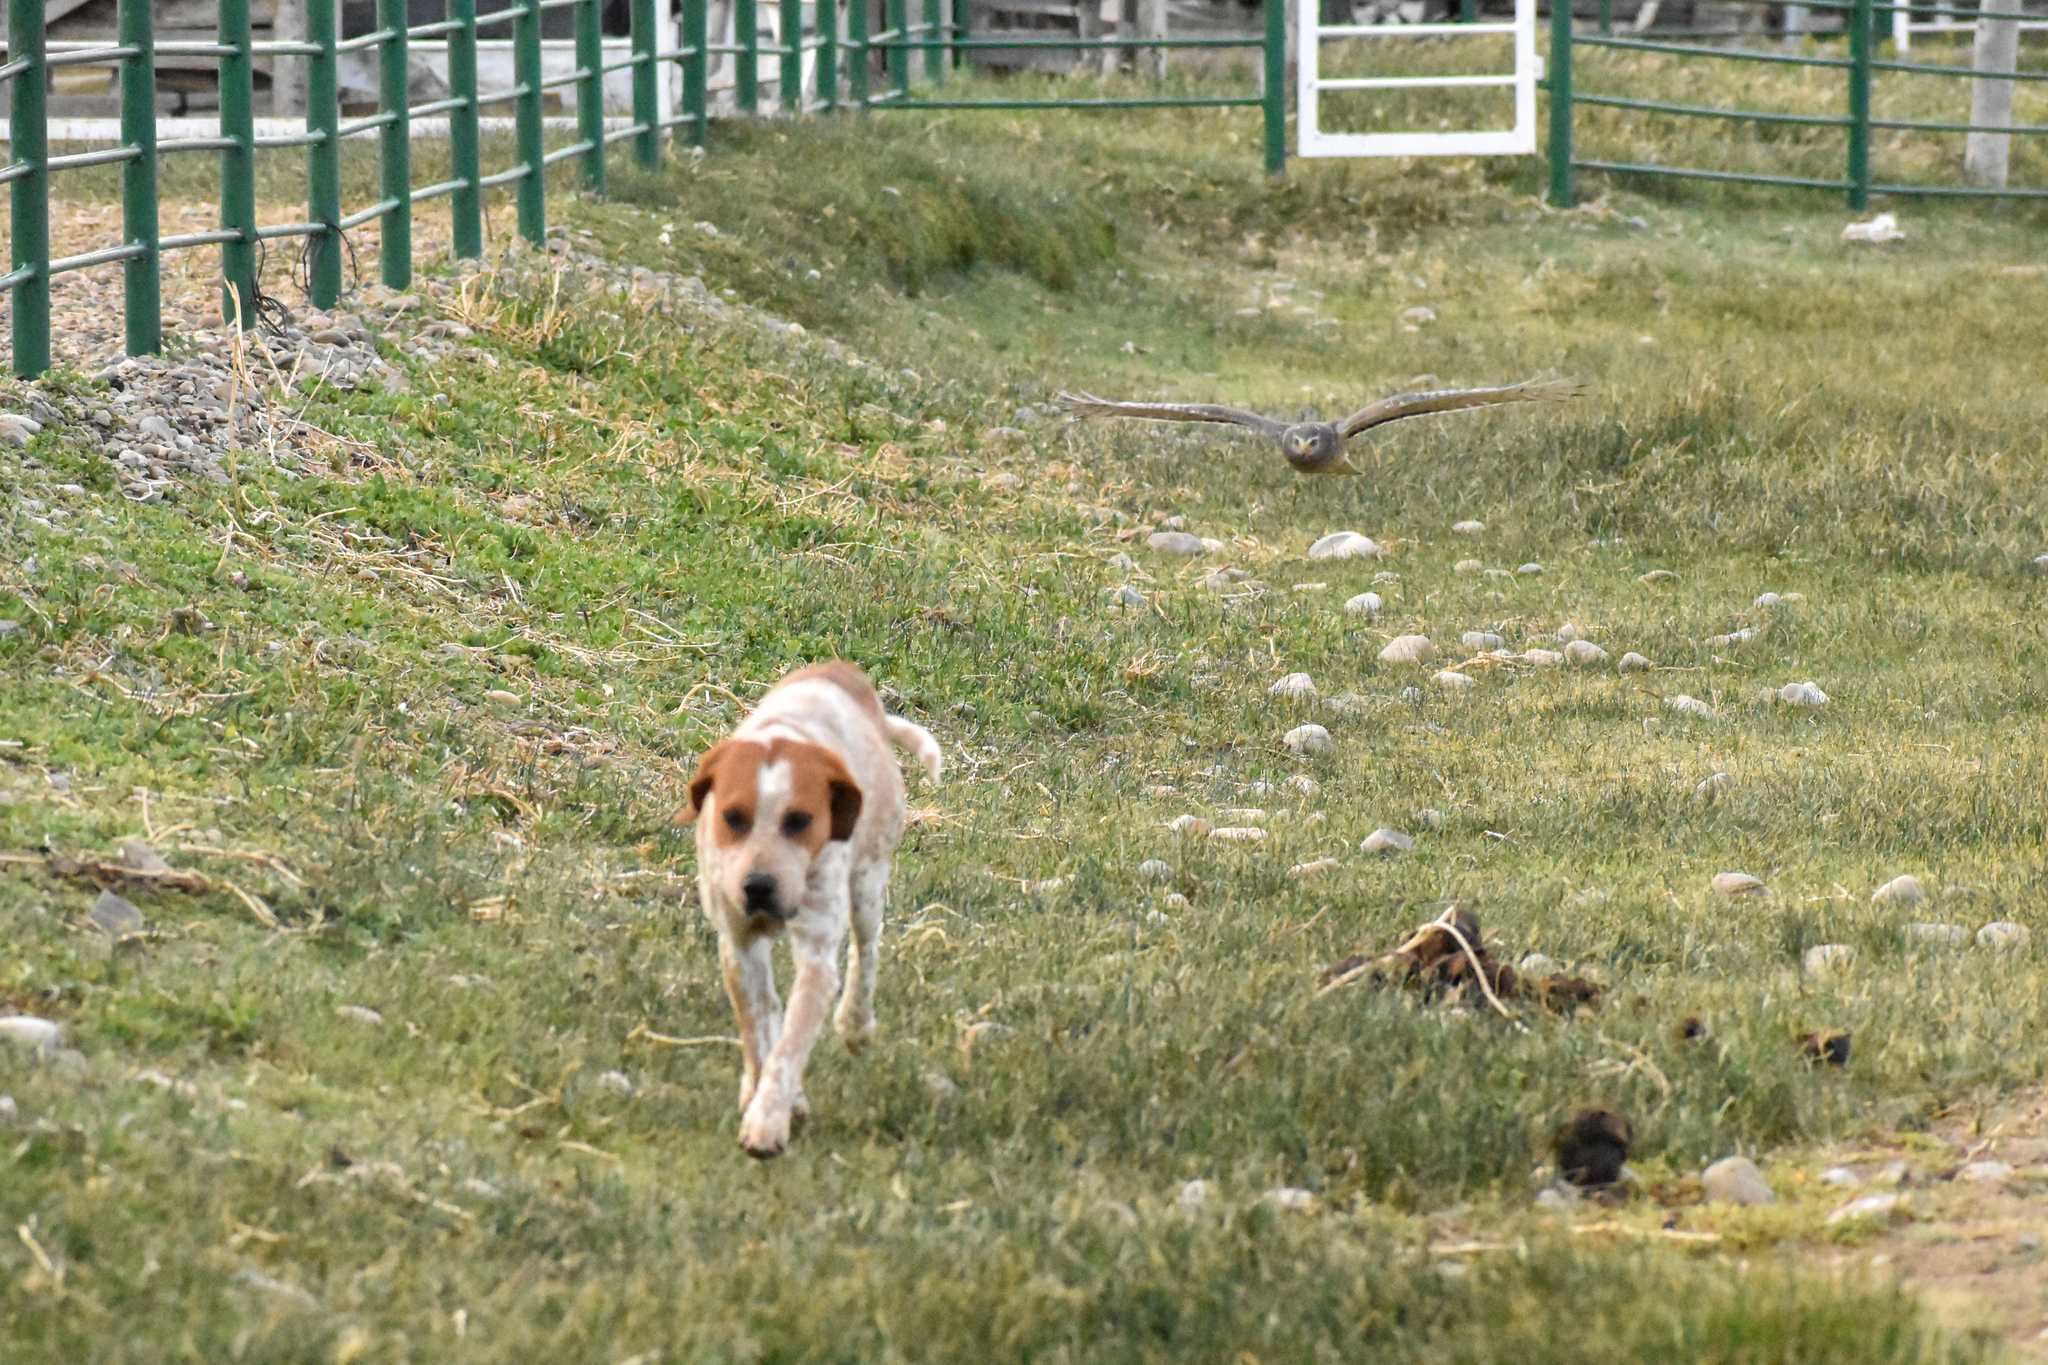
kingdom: Animalia
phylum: Chordata
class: Aves
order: Accipitriformes
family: Accipitridae
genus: Circus
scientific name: Circus cinereus
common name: Cinereous harrier
